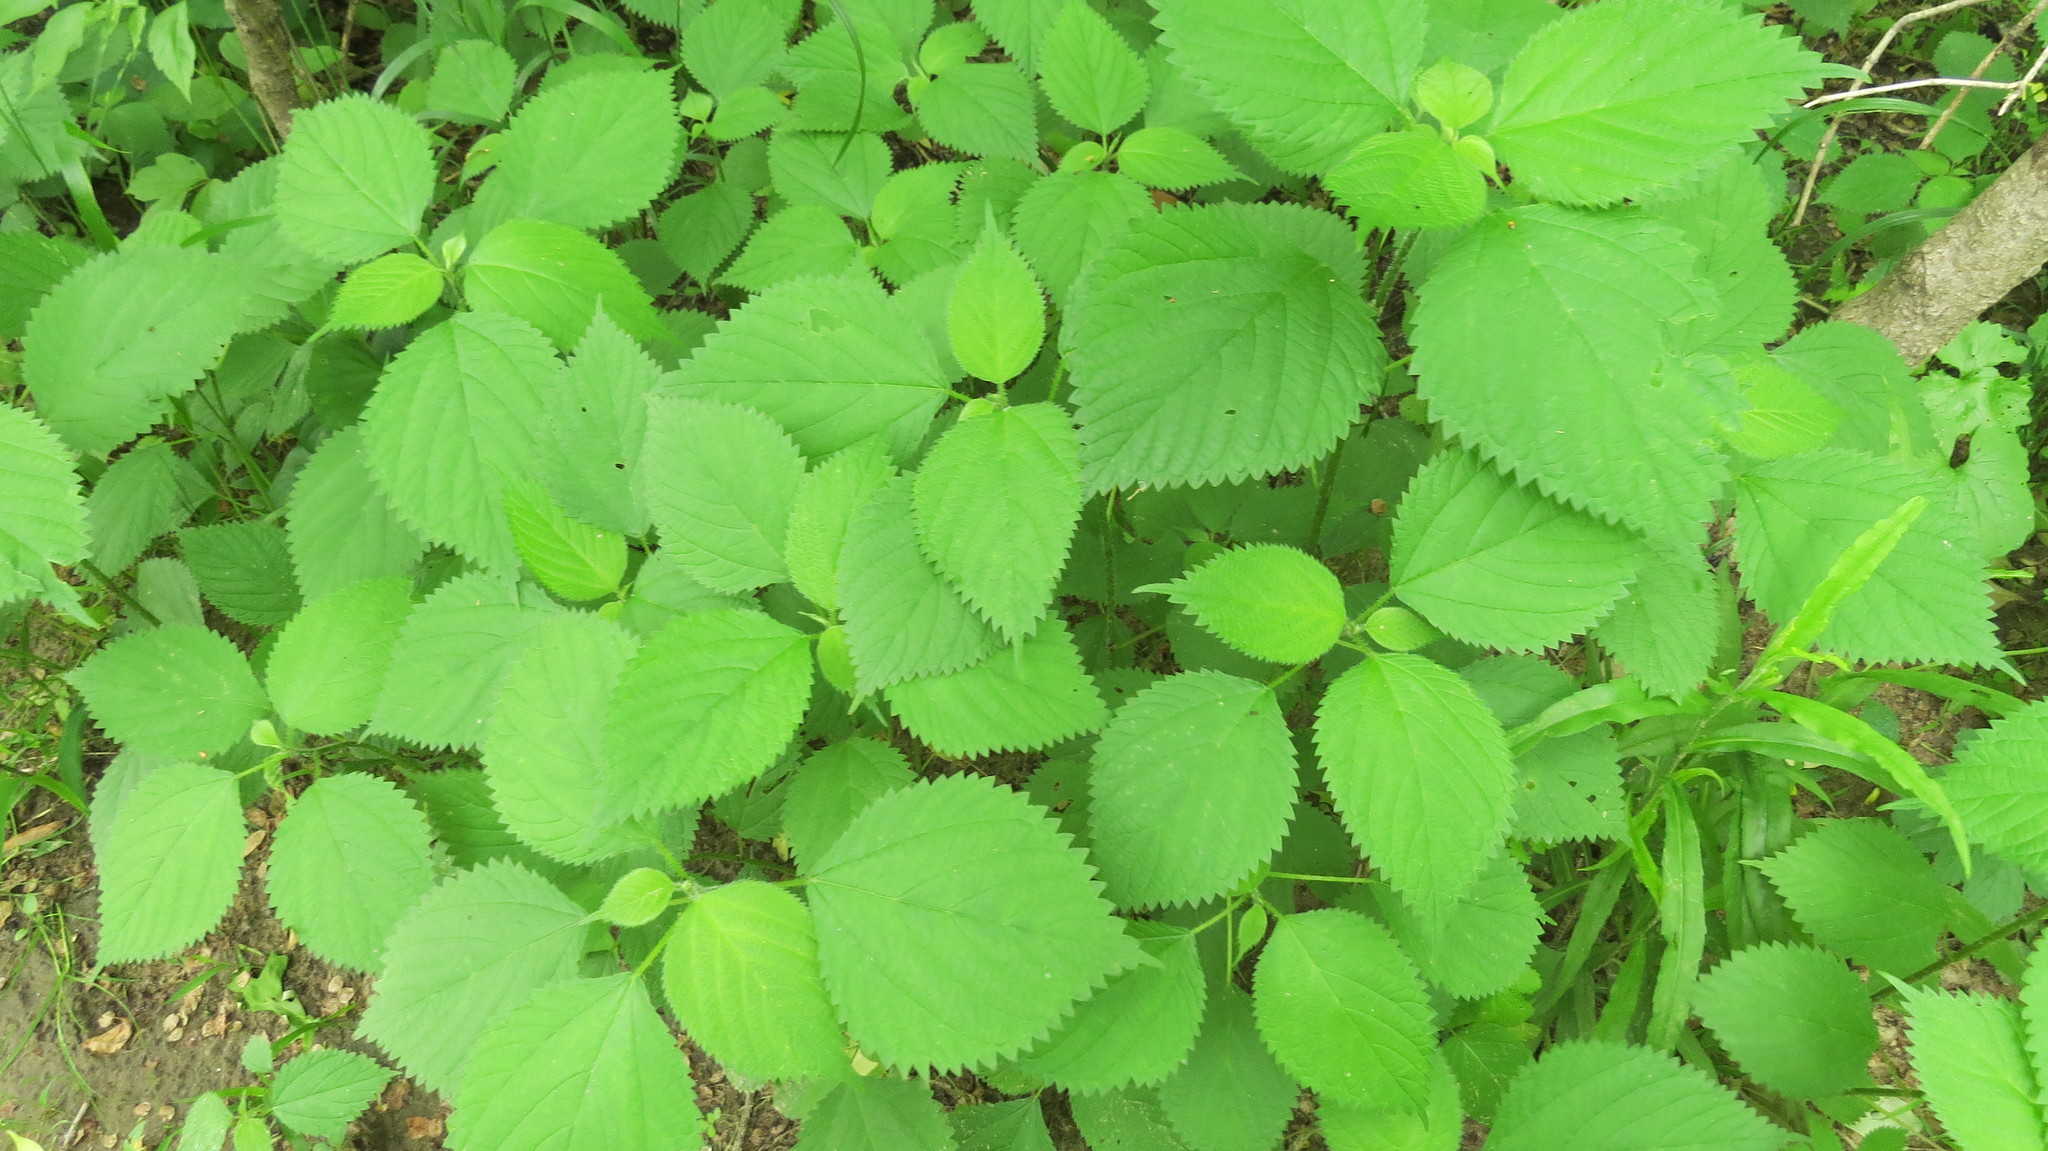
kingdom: Plantae
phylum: Tracheophyta
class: Magnoliopsida
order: Rosales
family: Urticaceae
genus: Laportea
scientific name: Laportea canadensis
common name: Canada nettle
